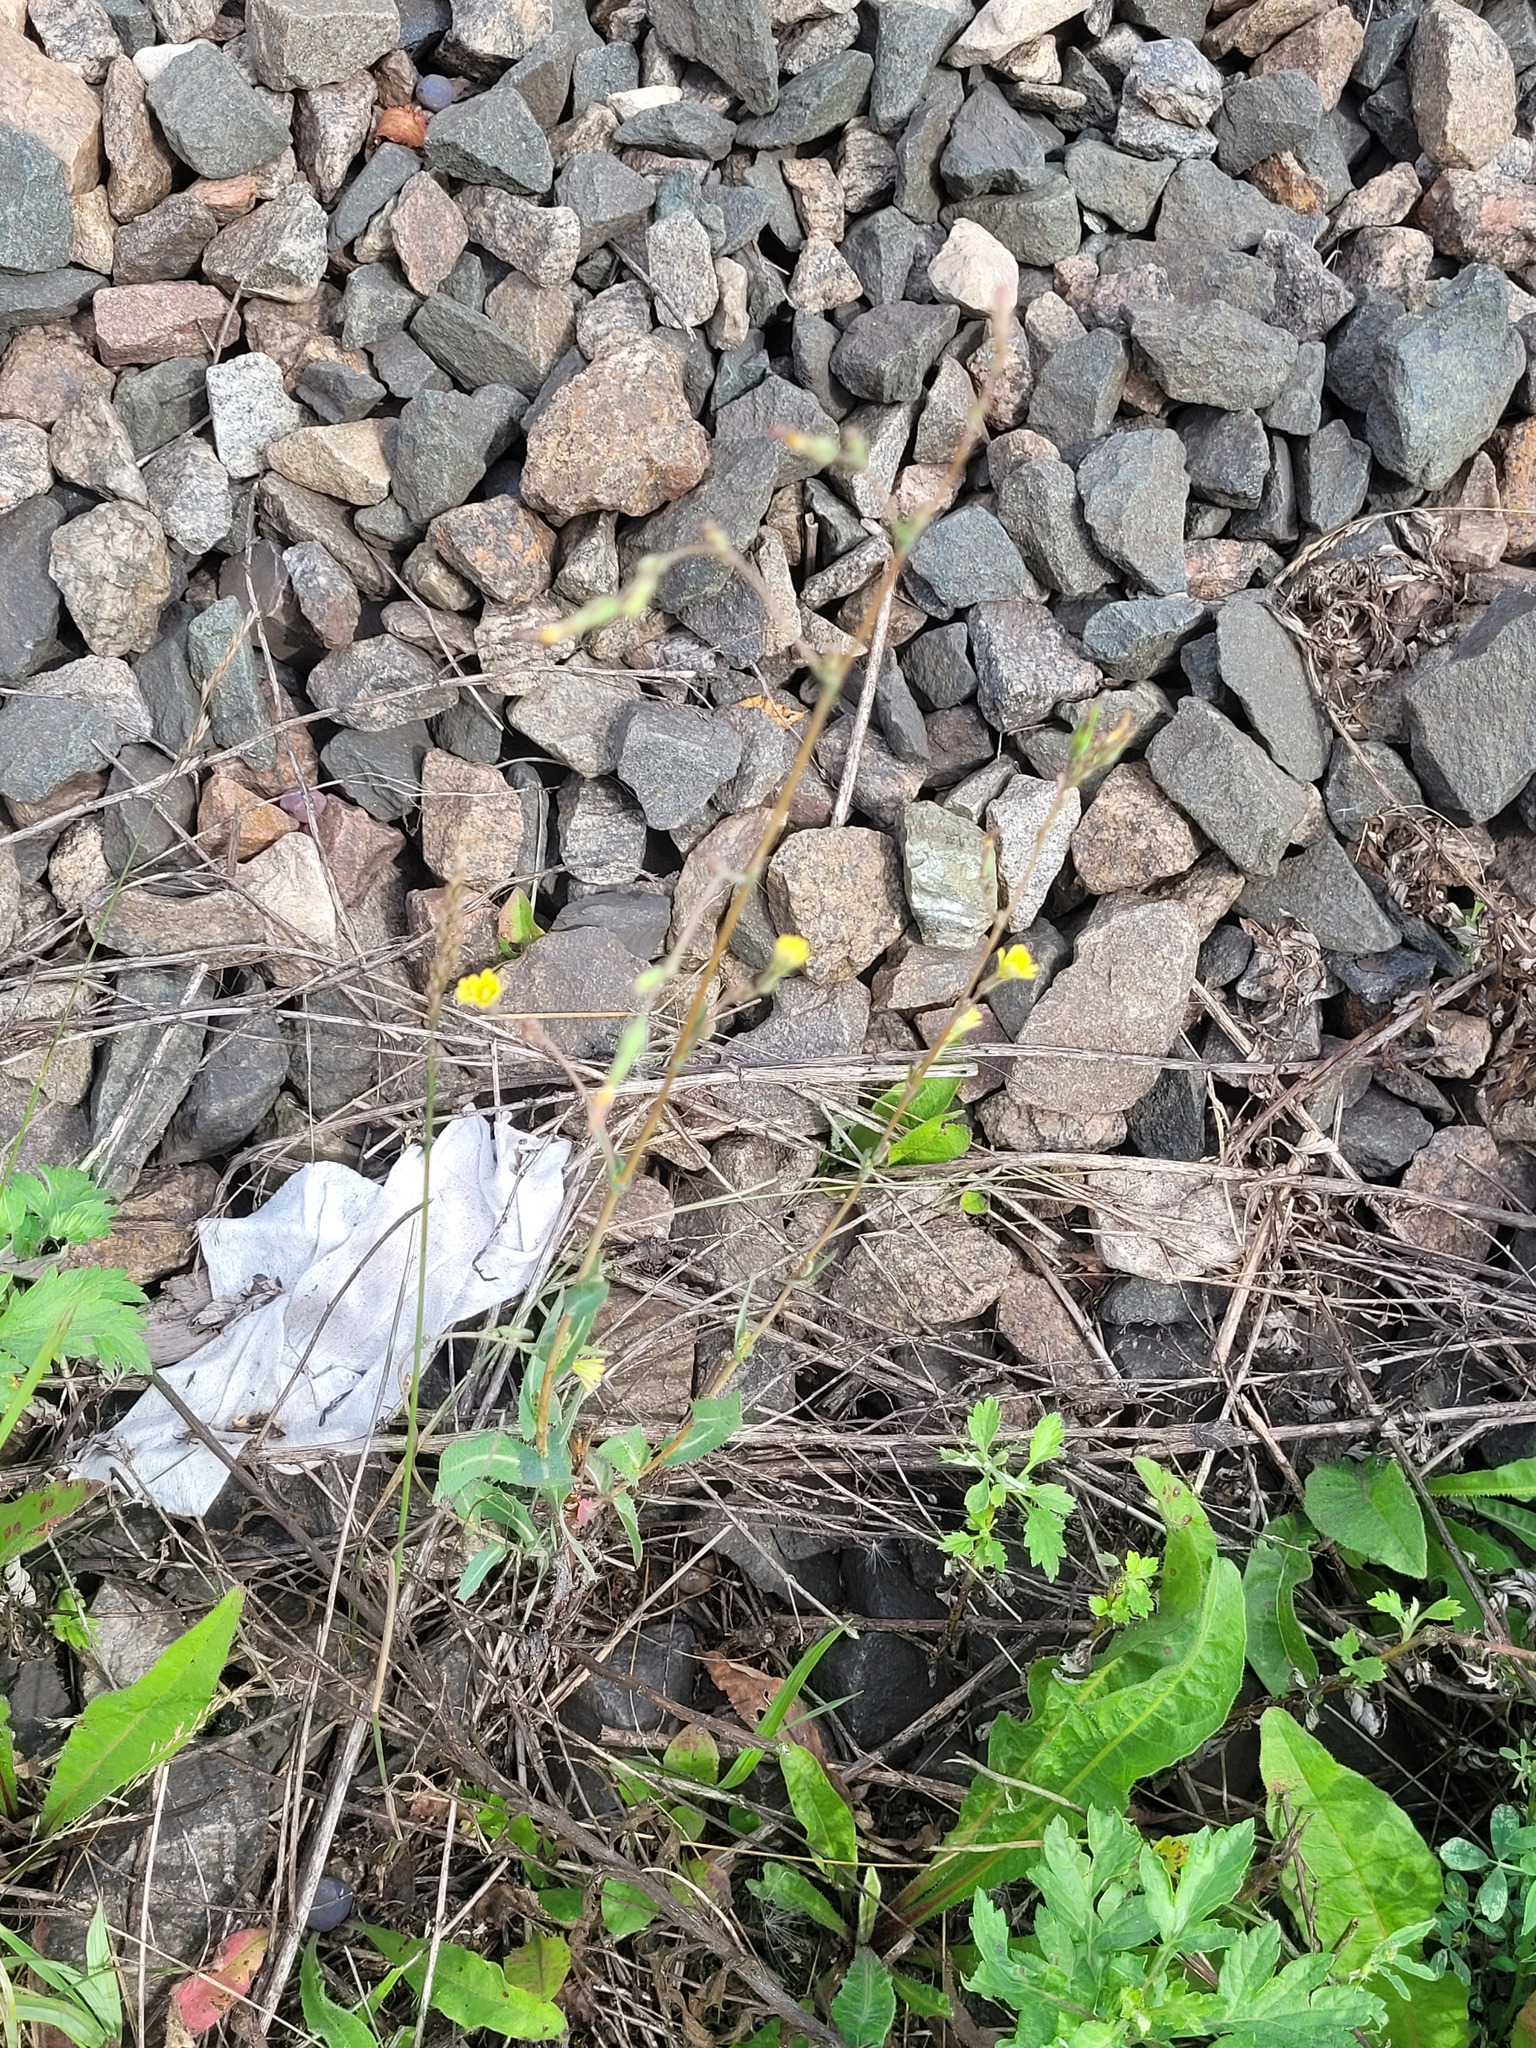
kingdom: Plantae
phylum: Tracheophyta
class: Magnoliopsida
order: Asterales
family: Asteraceae
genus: Lactuca
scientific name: Lactuca serriola
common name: Prickly lettuce
